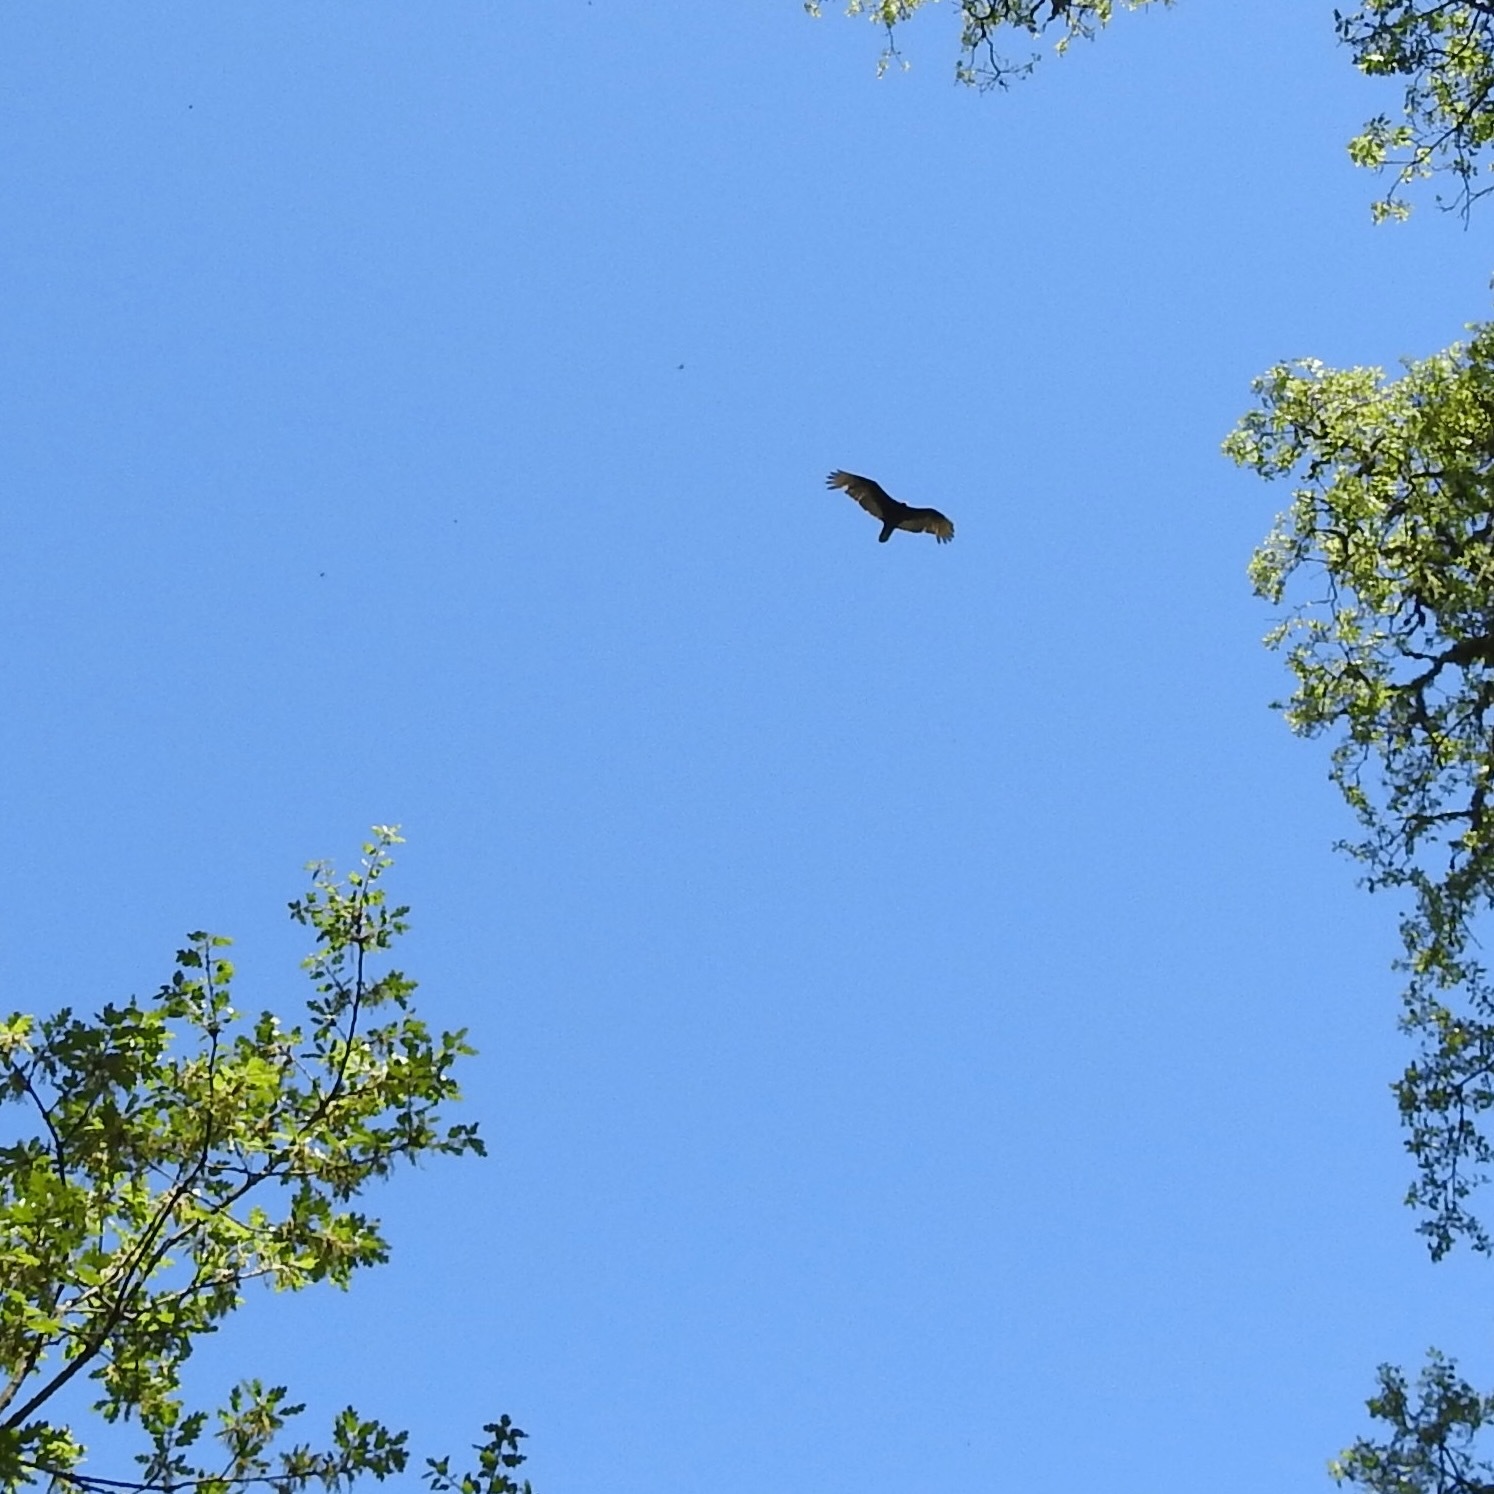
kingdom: Animalia
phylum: Chordata
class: Aves
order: Accipitriformes
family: Cathartidae
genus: Cathartes
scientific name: Cathartes aura
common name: Turkey vulture
